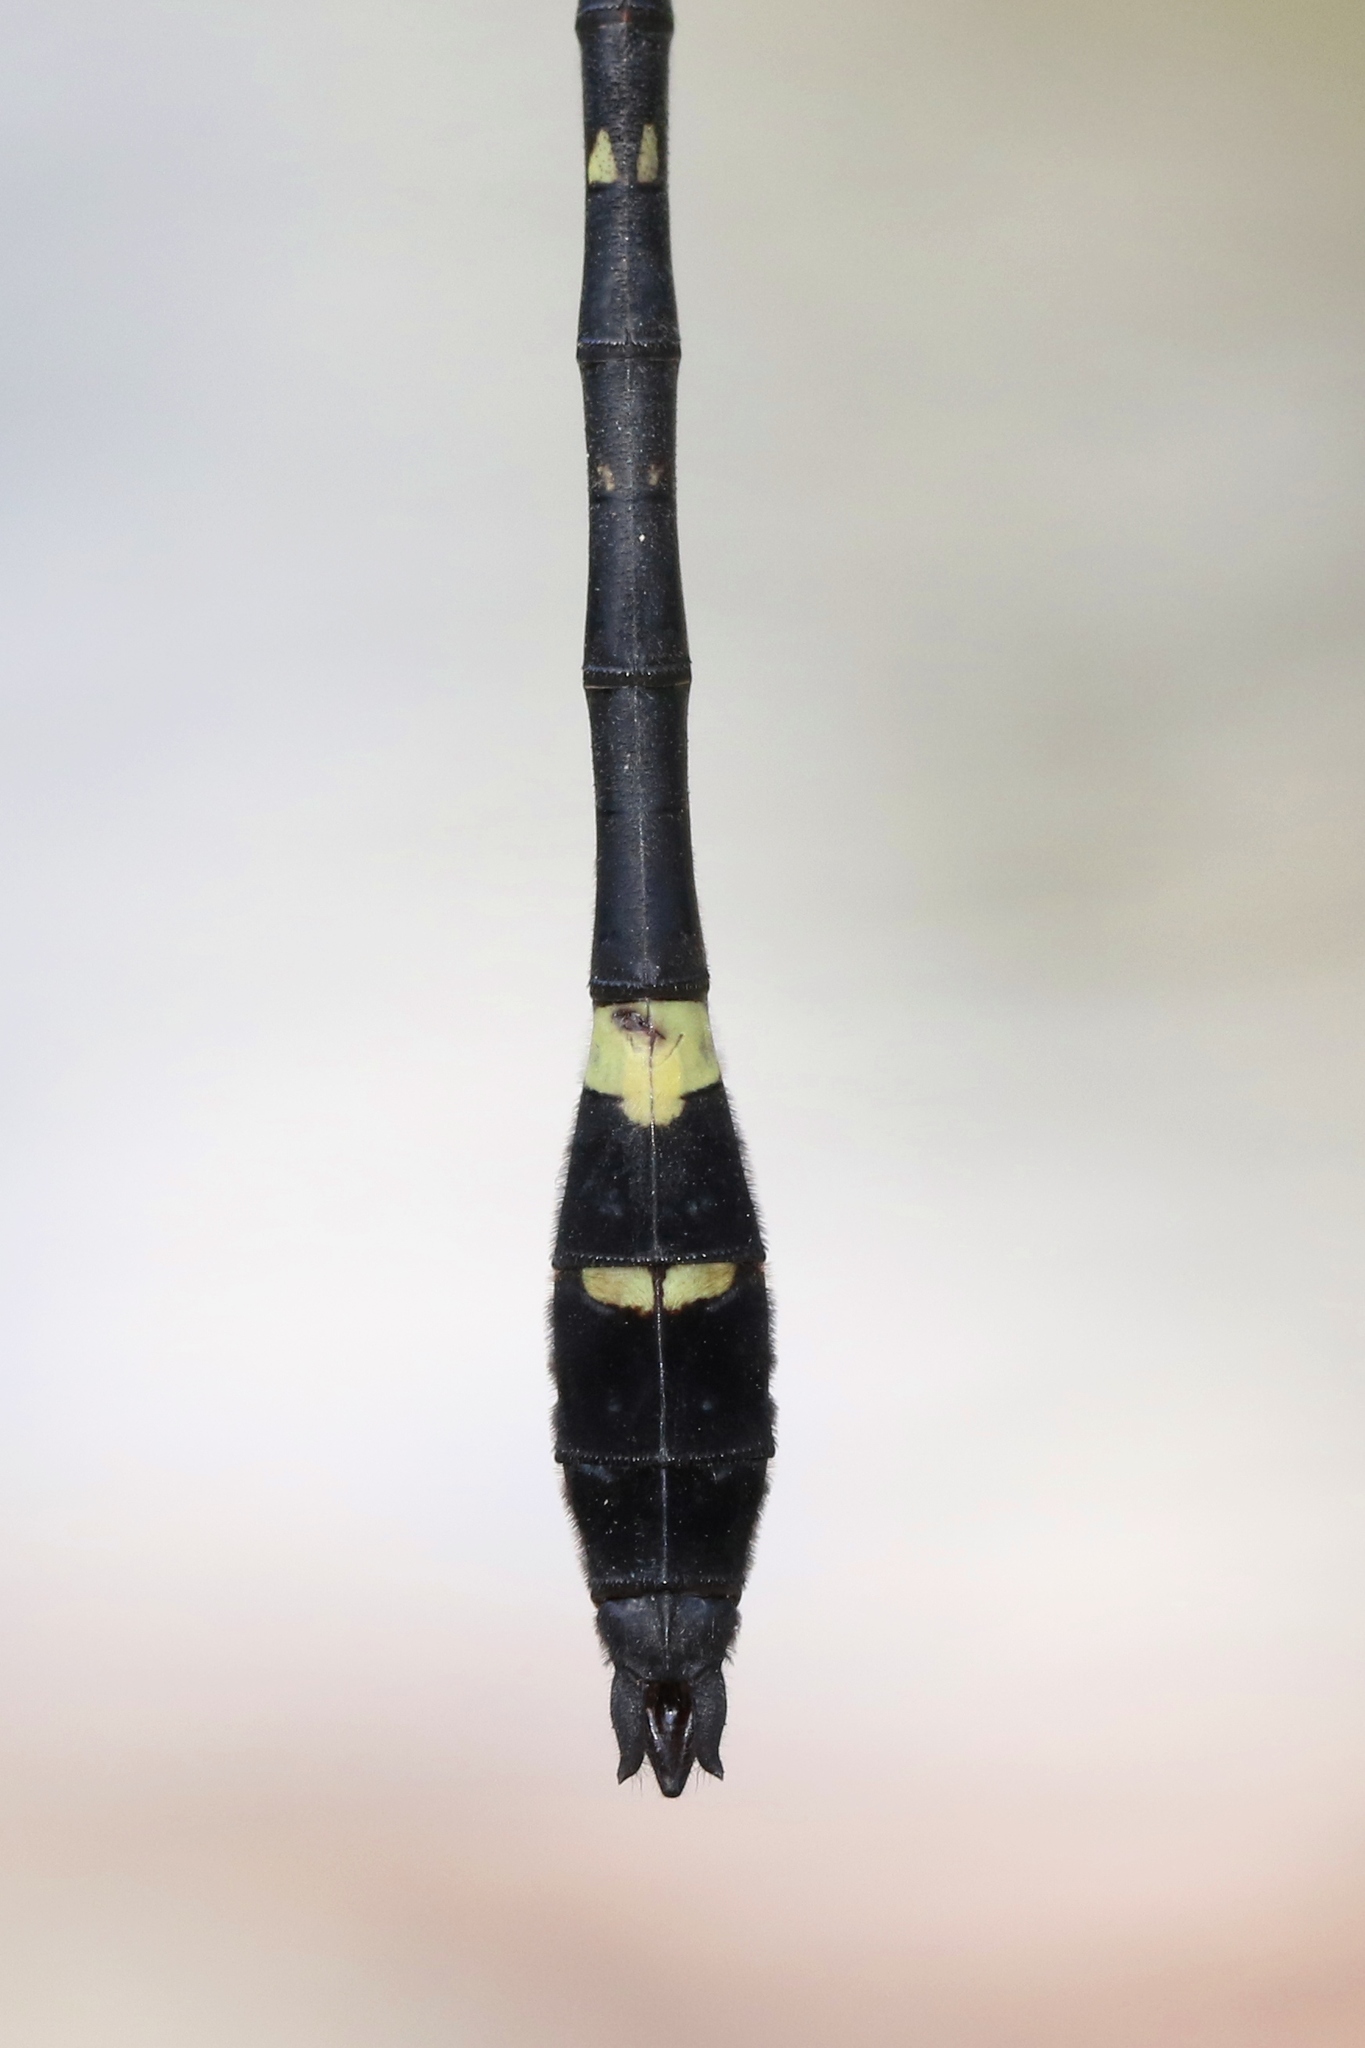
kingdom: Animalia
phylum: Arthropoda
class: Insecta
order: Odonata
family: Macromiidae
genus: Macromia
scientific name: Macromia illinoiensis
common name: Swift river cruiser
